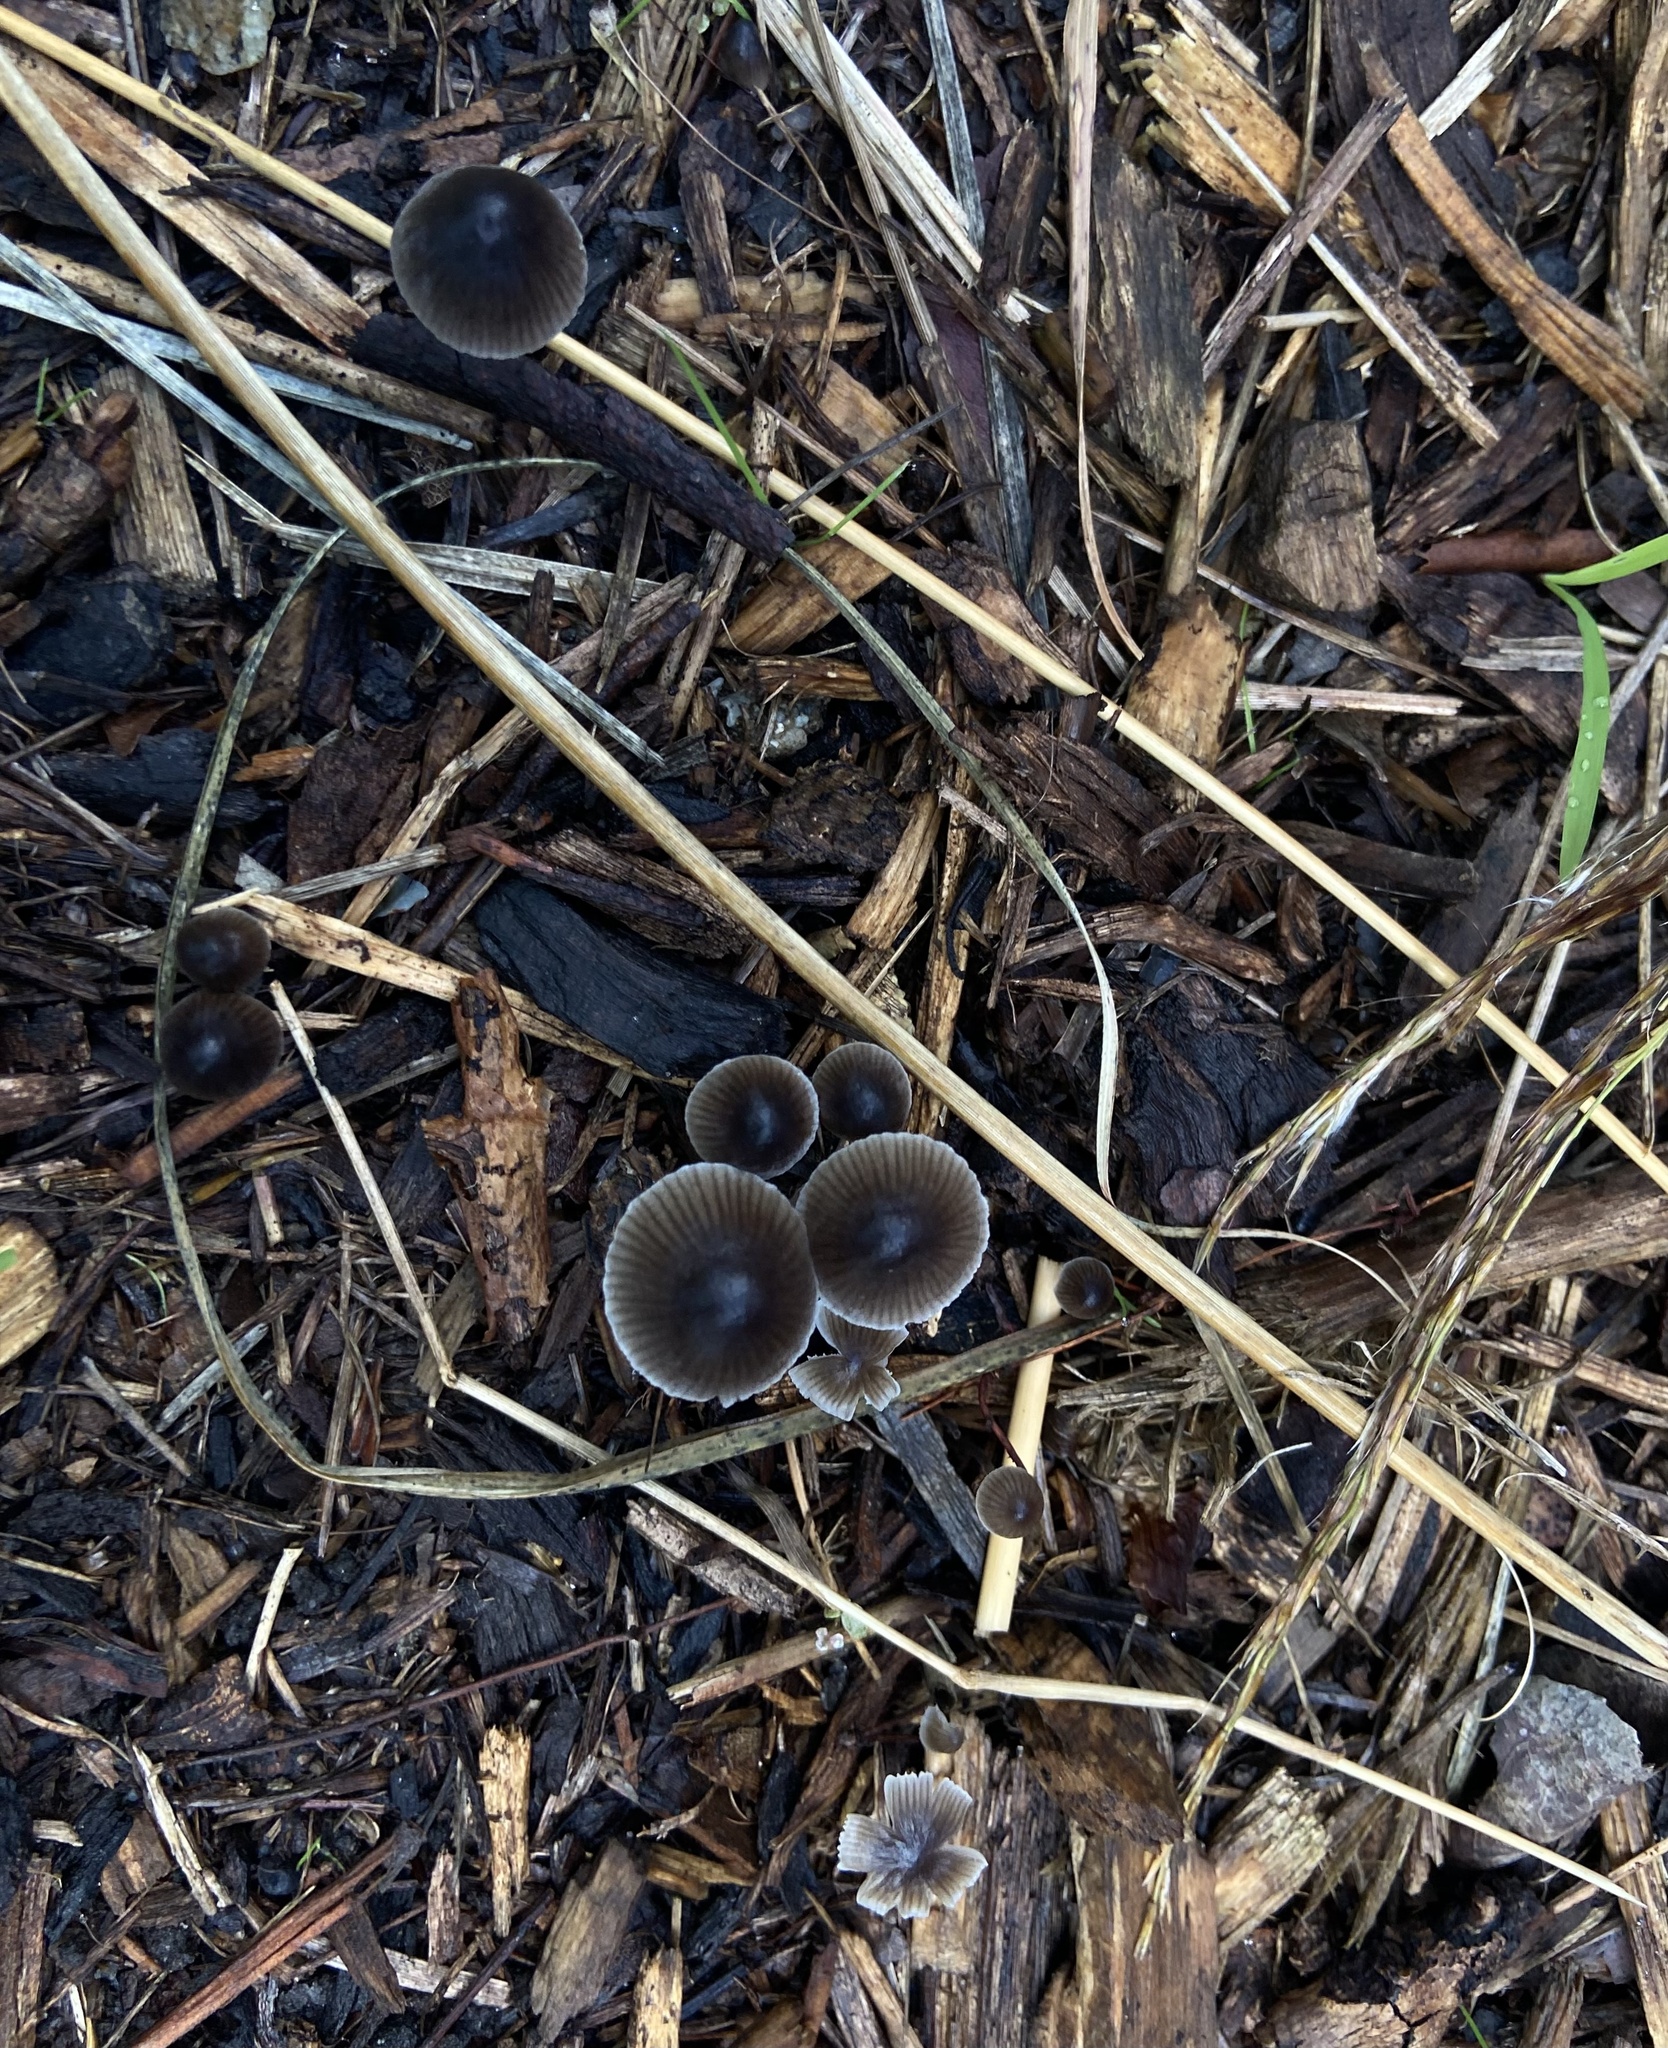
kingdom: Fungi
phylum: Basidiomycota
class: Agaricomycetes
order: Agaricales
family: Mycenaceae
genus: Mycena
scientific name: Mycena leptocephala
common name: Nitrous bonnet
